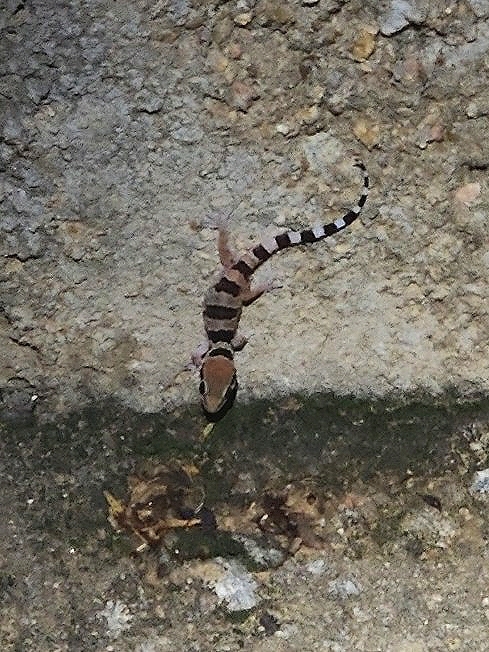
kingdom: Animalia
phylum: Chordata
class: Squamata
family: Gekkonidae
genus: Hemidactylus
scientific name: Hemidactylus whitakeri
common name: Whitaker’s termite hill gecko
